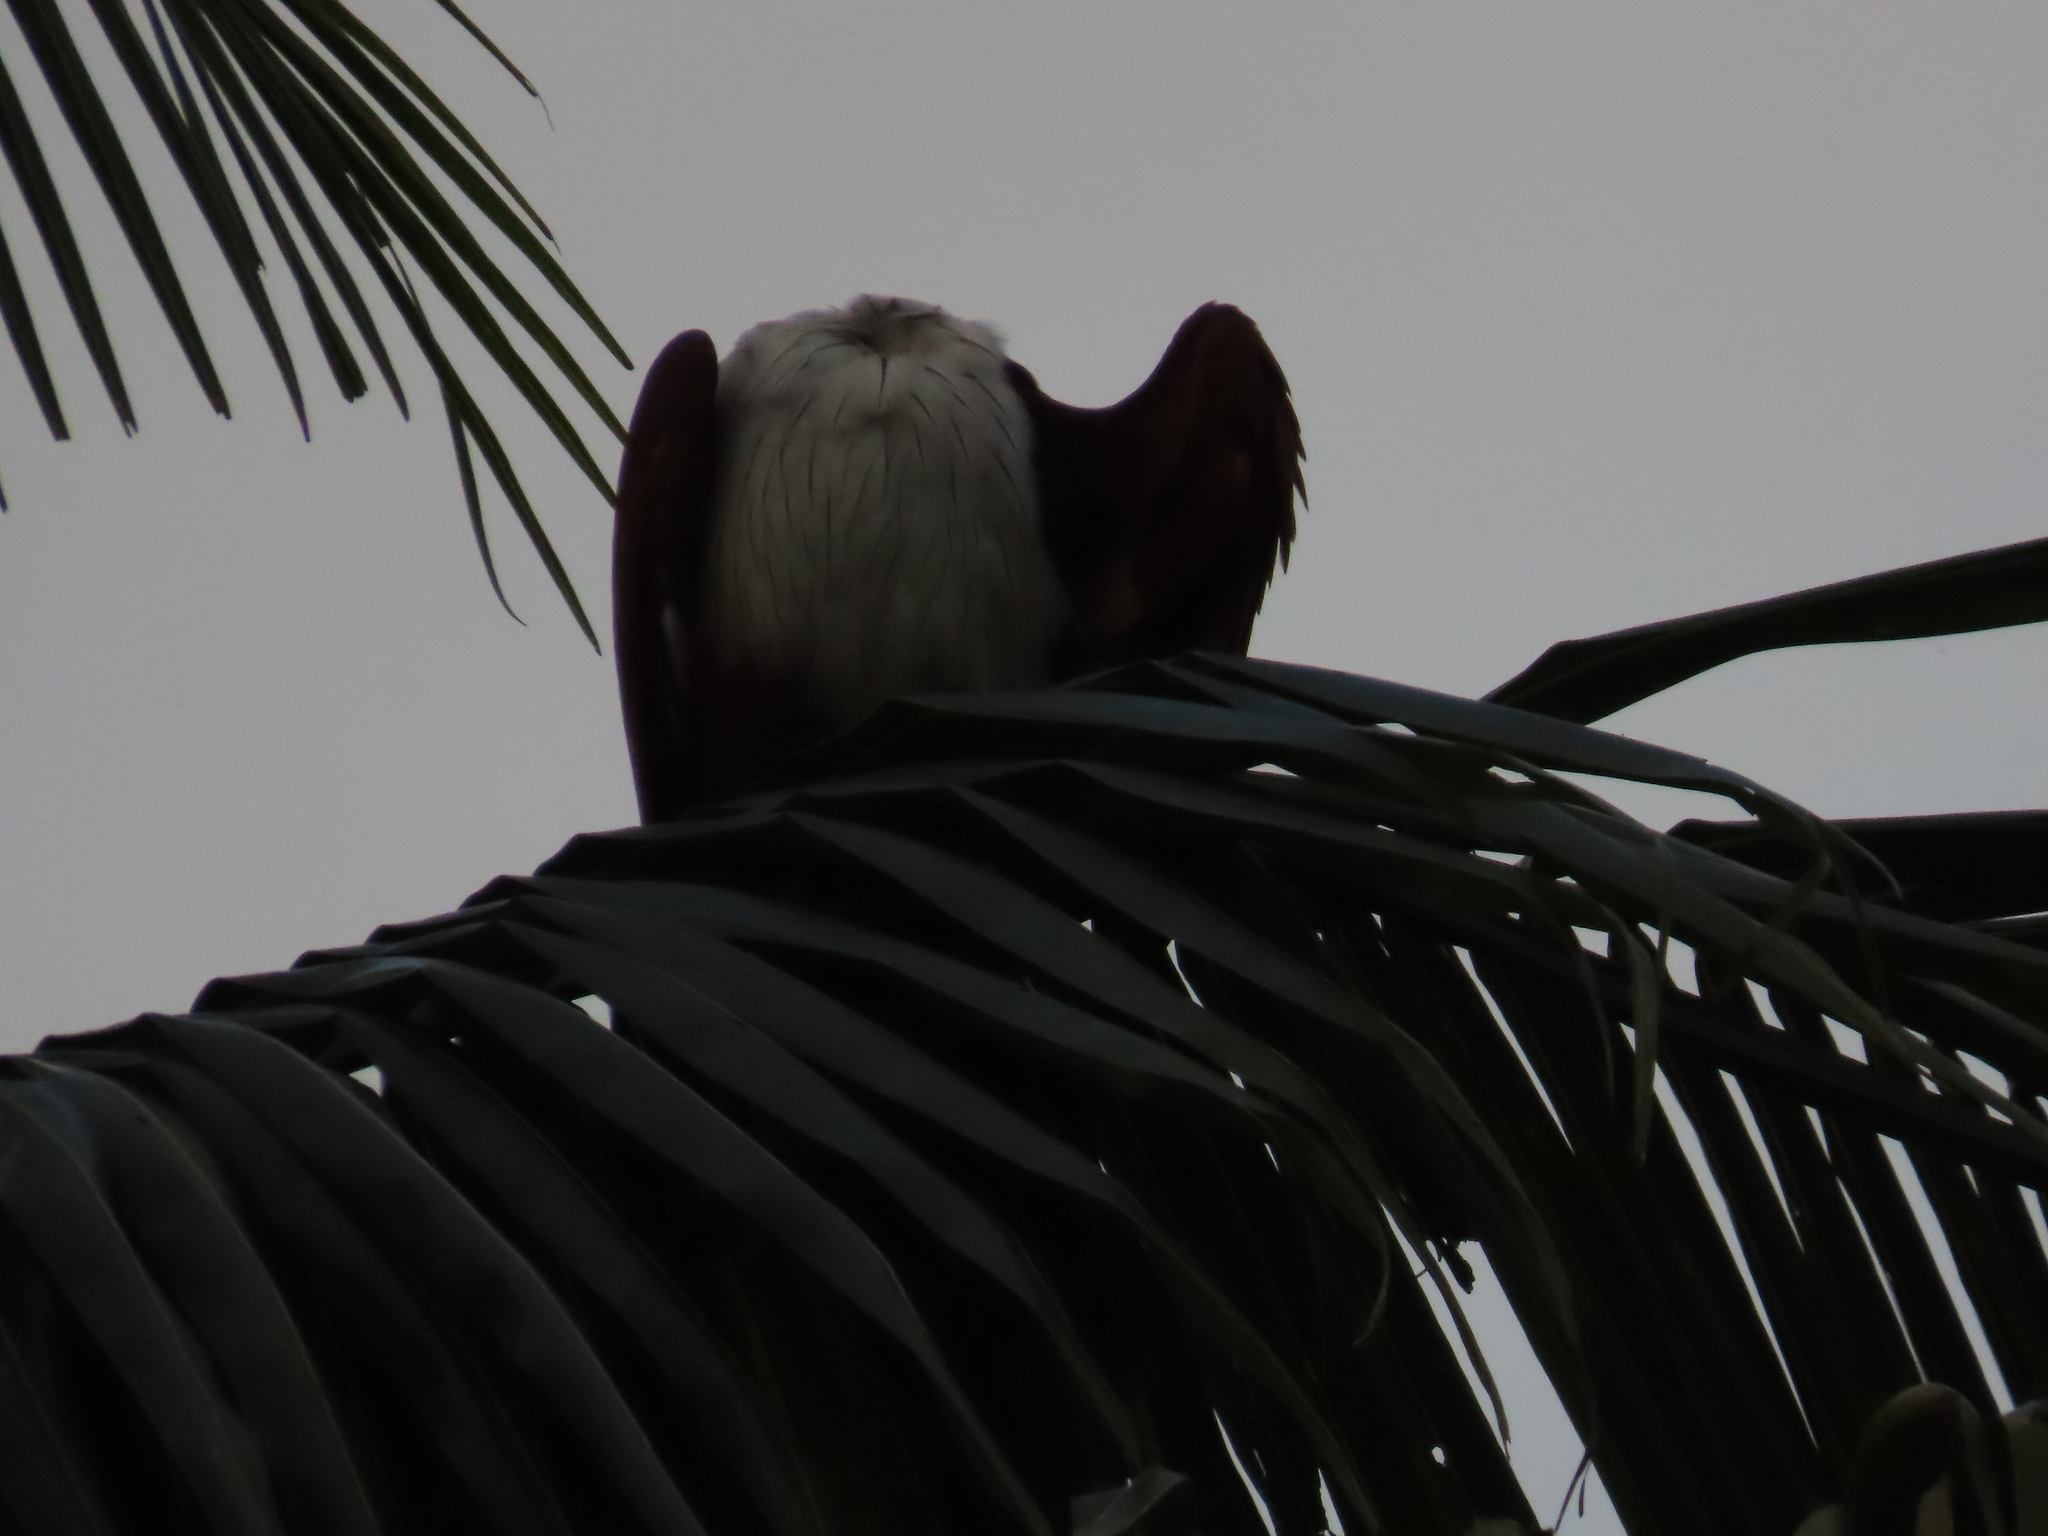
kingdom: Animalia
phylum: Chordata
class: Aves
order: Accipitriformes
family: Accipitridae
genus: Haliastur
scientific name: Haliastur indus
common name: Brahminy kite
